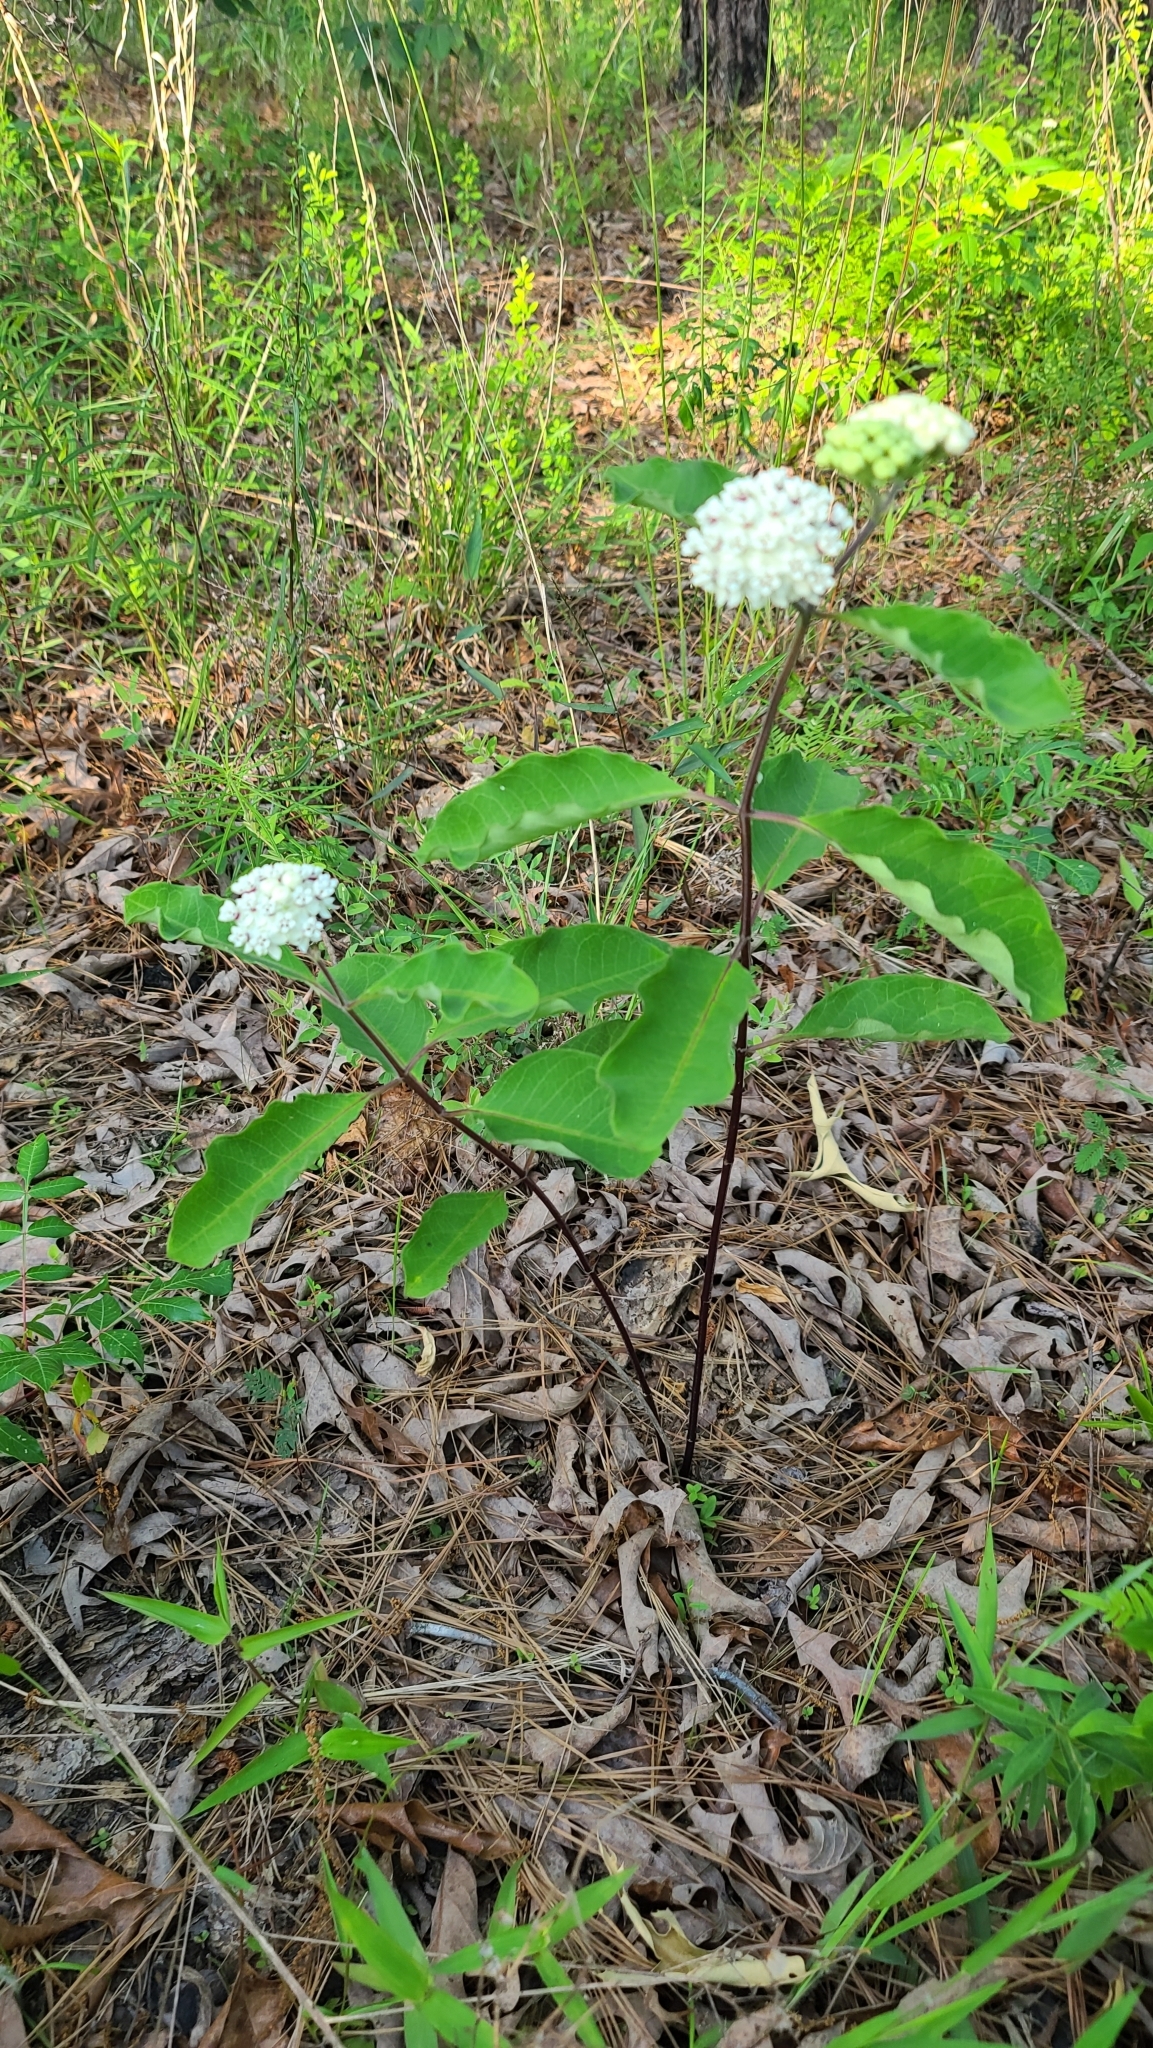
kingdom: Plantae
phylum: Tracheophyta
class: Magnoliopsida
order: Gentianales
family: Apocynaceae
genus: Asclepias
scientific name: Asclepias variegata
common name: Variegated milkweed
